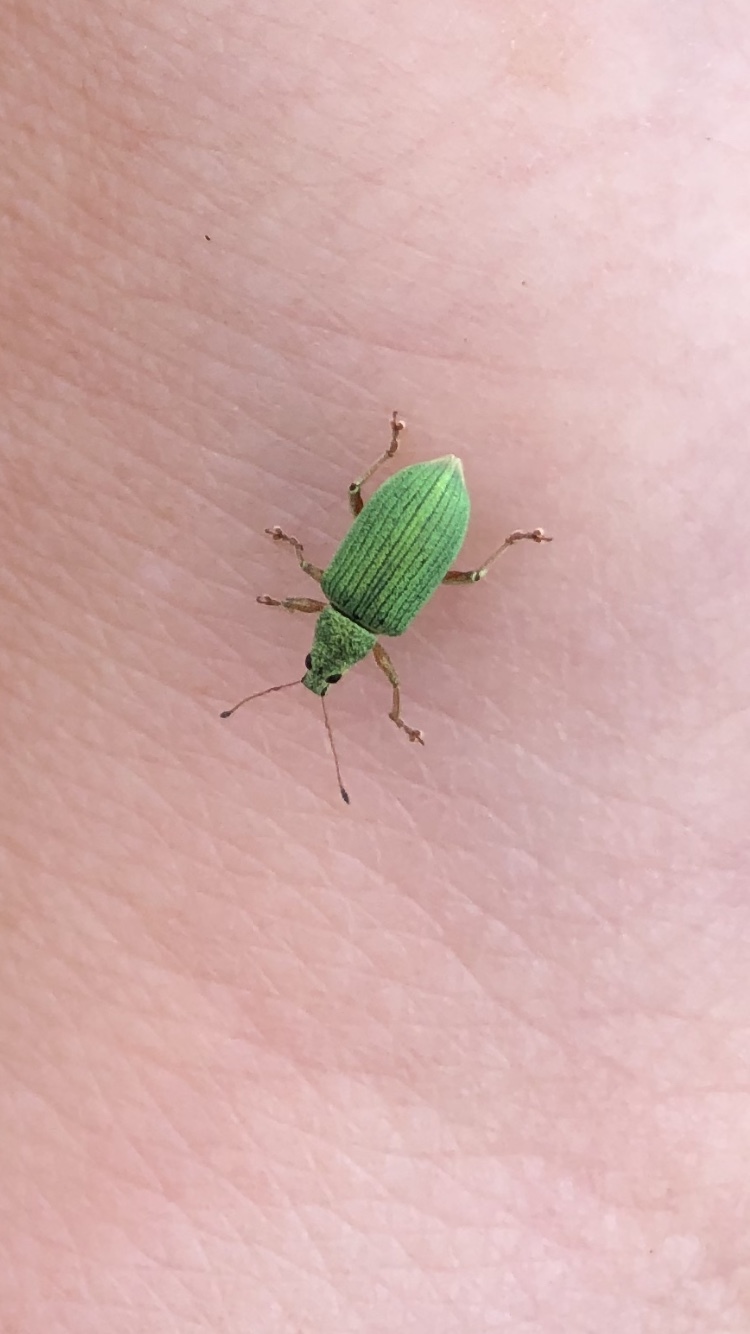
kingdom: Animalia
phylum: Arthropoda
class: Insecta
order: Coleoptera
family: Curculionidae
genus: Polydrusus
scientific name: Polydrusus formosus
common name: Weevil
